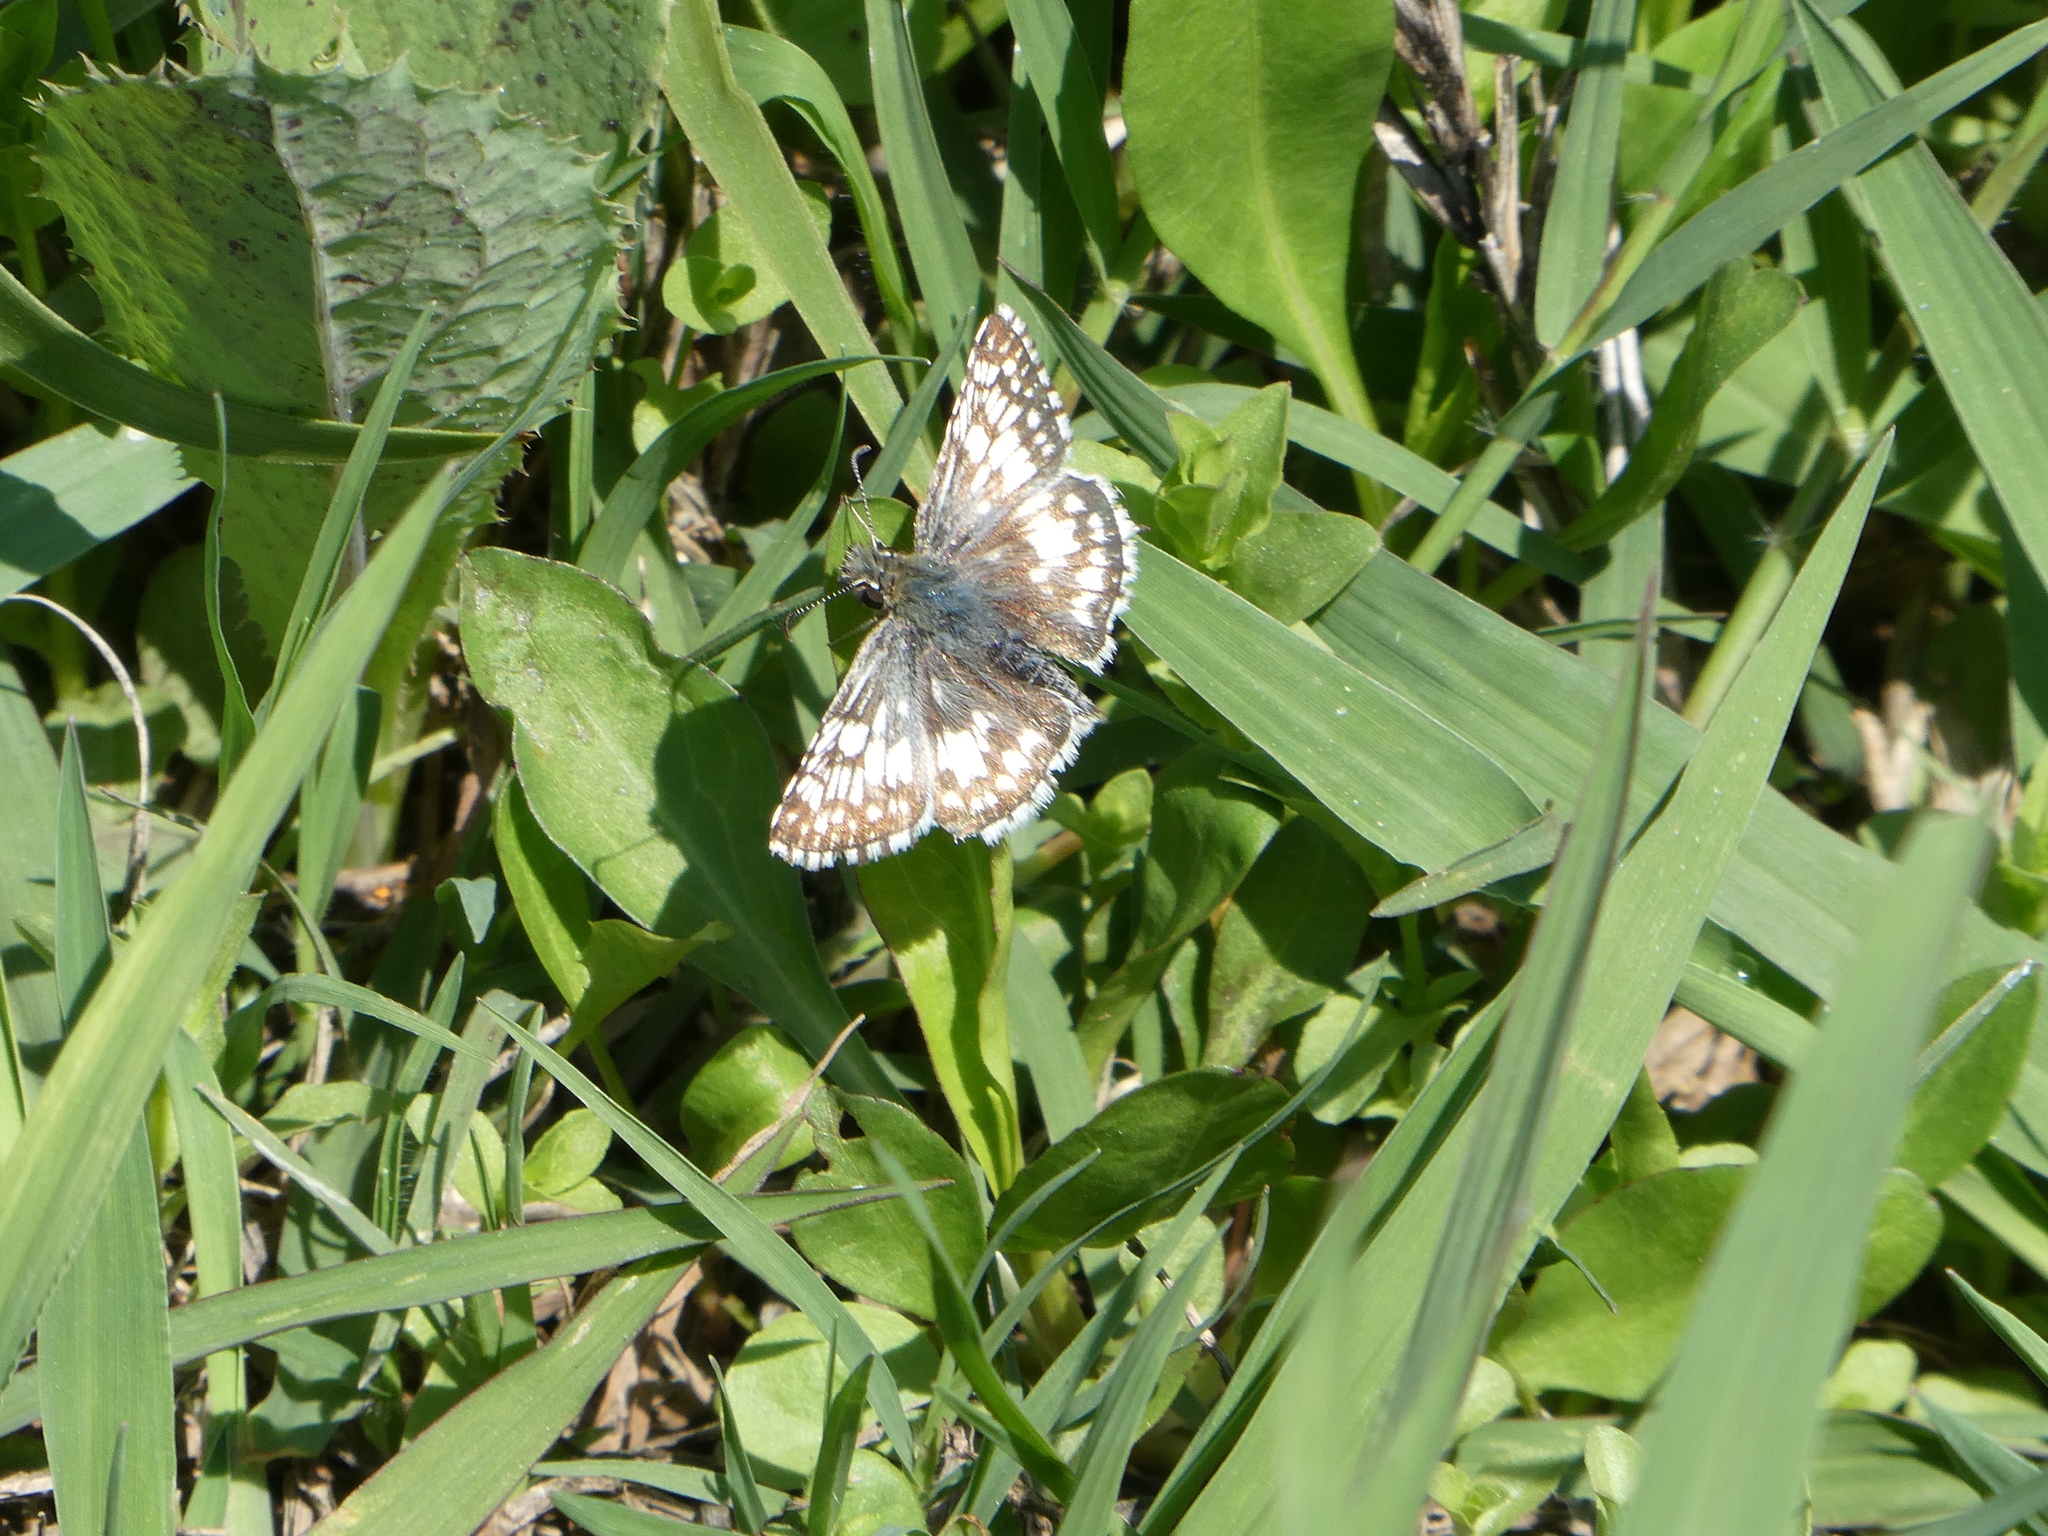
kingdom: Animalia
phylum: Arthropoda
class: Insecta
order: Lepidoptera
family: Hesperiidae
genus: Burnsius
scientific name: Burnsius communis
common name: Common checkered-skipper
